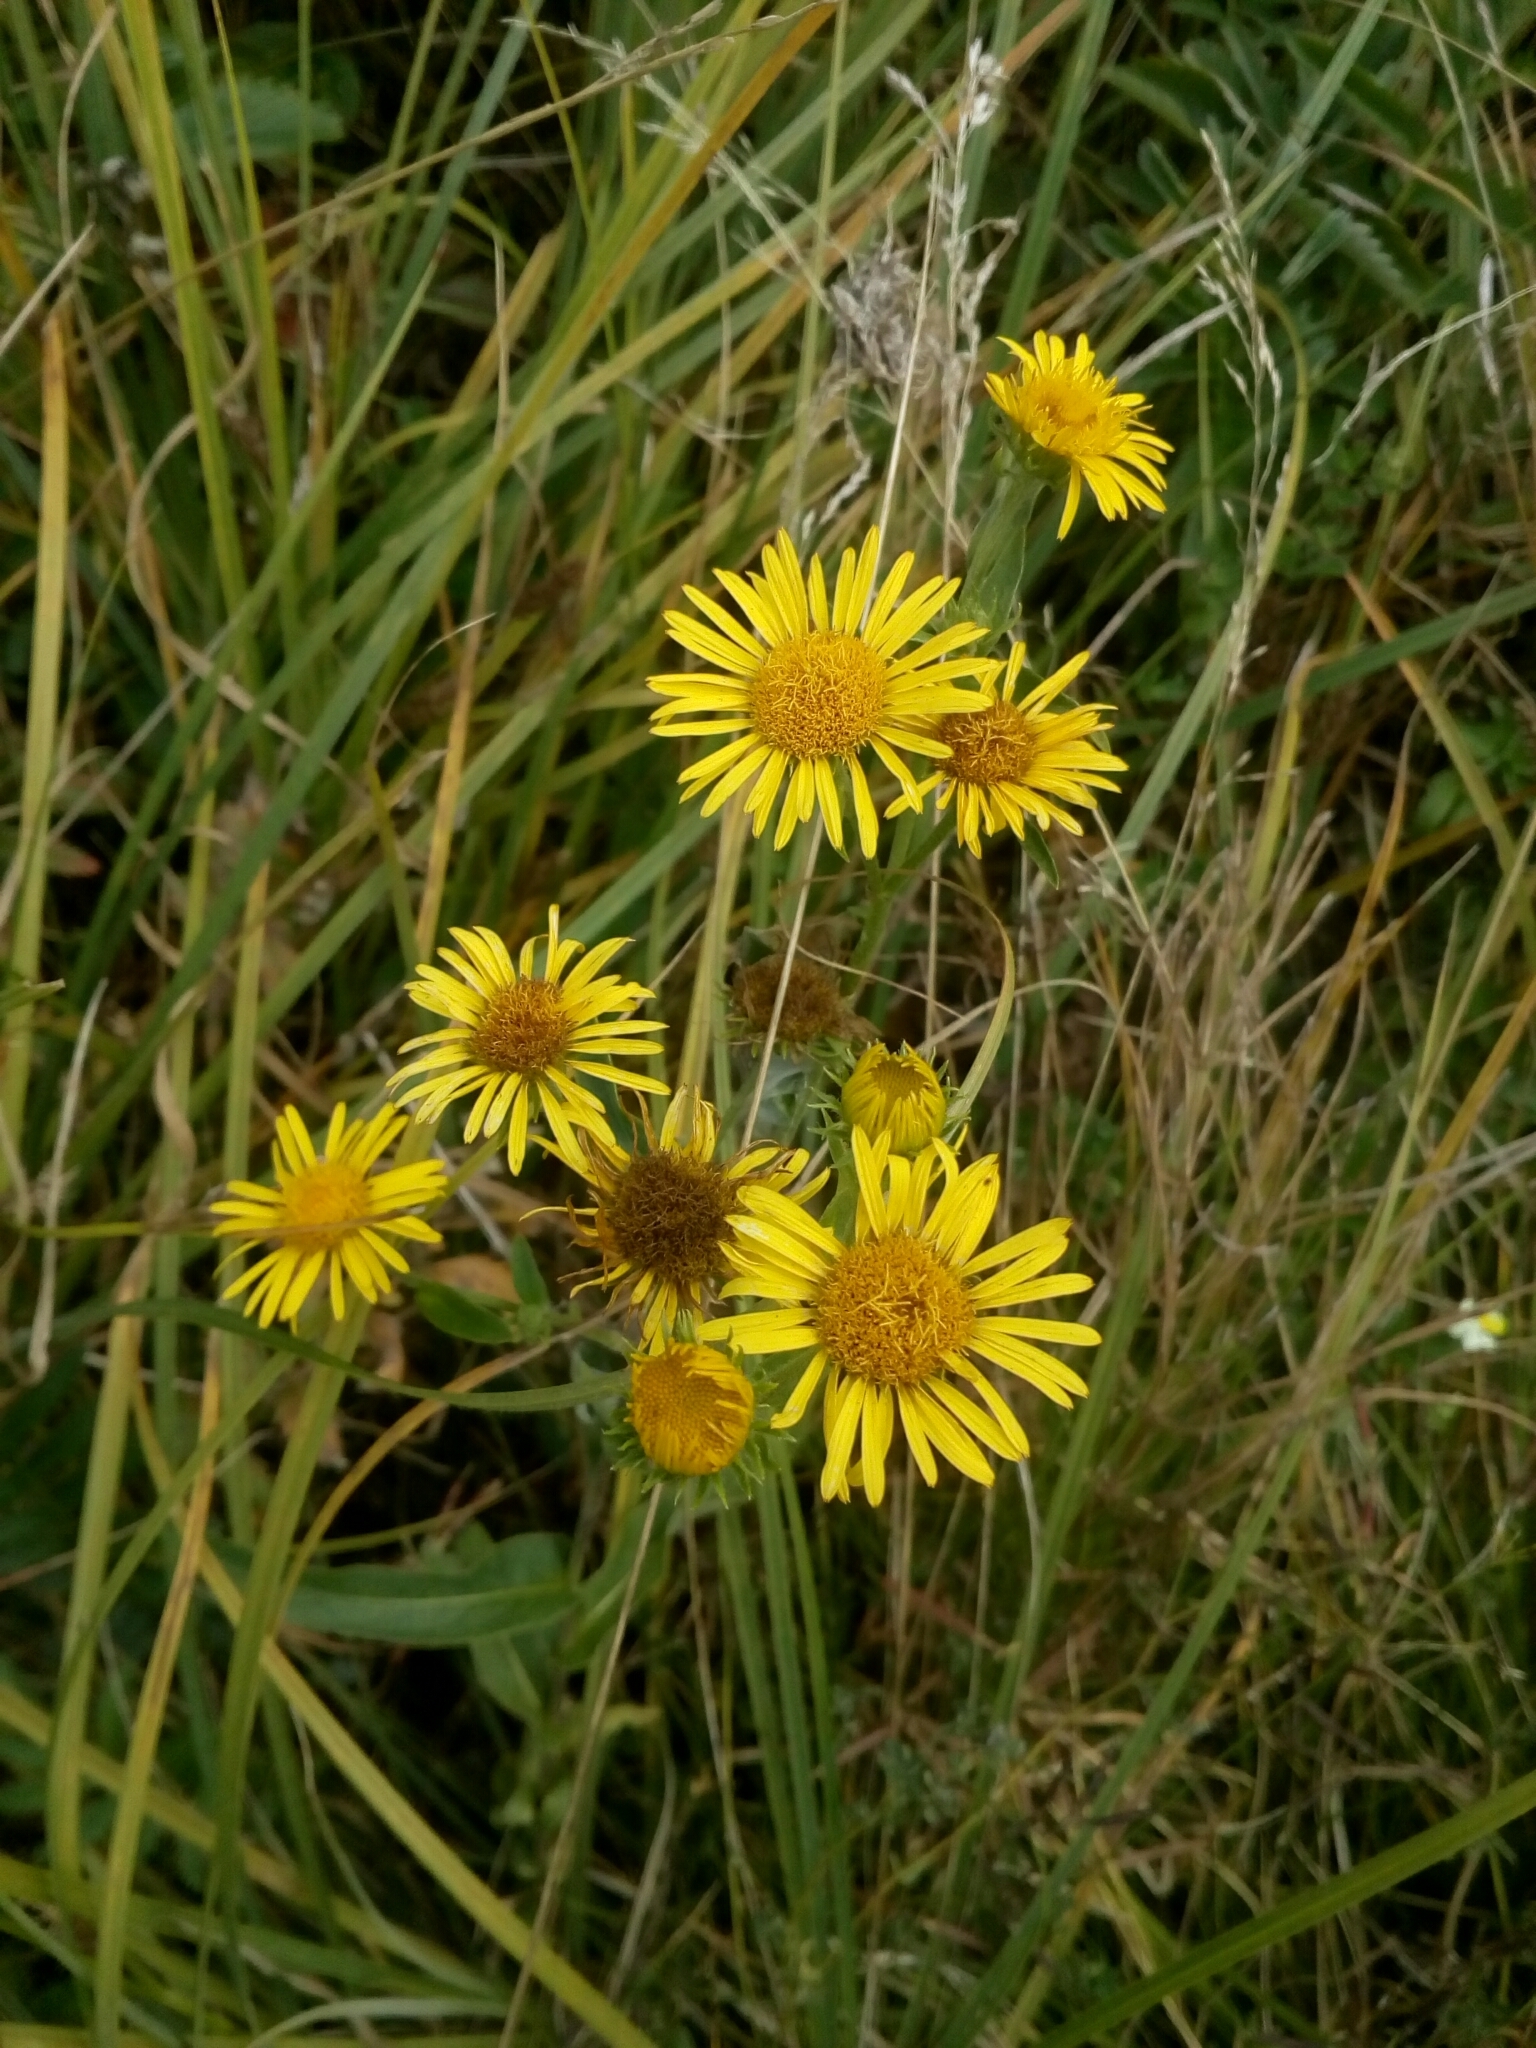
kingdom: Plantae
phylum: Tracheophyta
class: Magnoliopsida
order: Asterales
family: Asteraceae
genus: Pentanema
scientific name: Pentanema britannicum
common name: British elecampane
